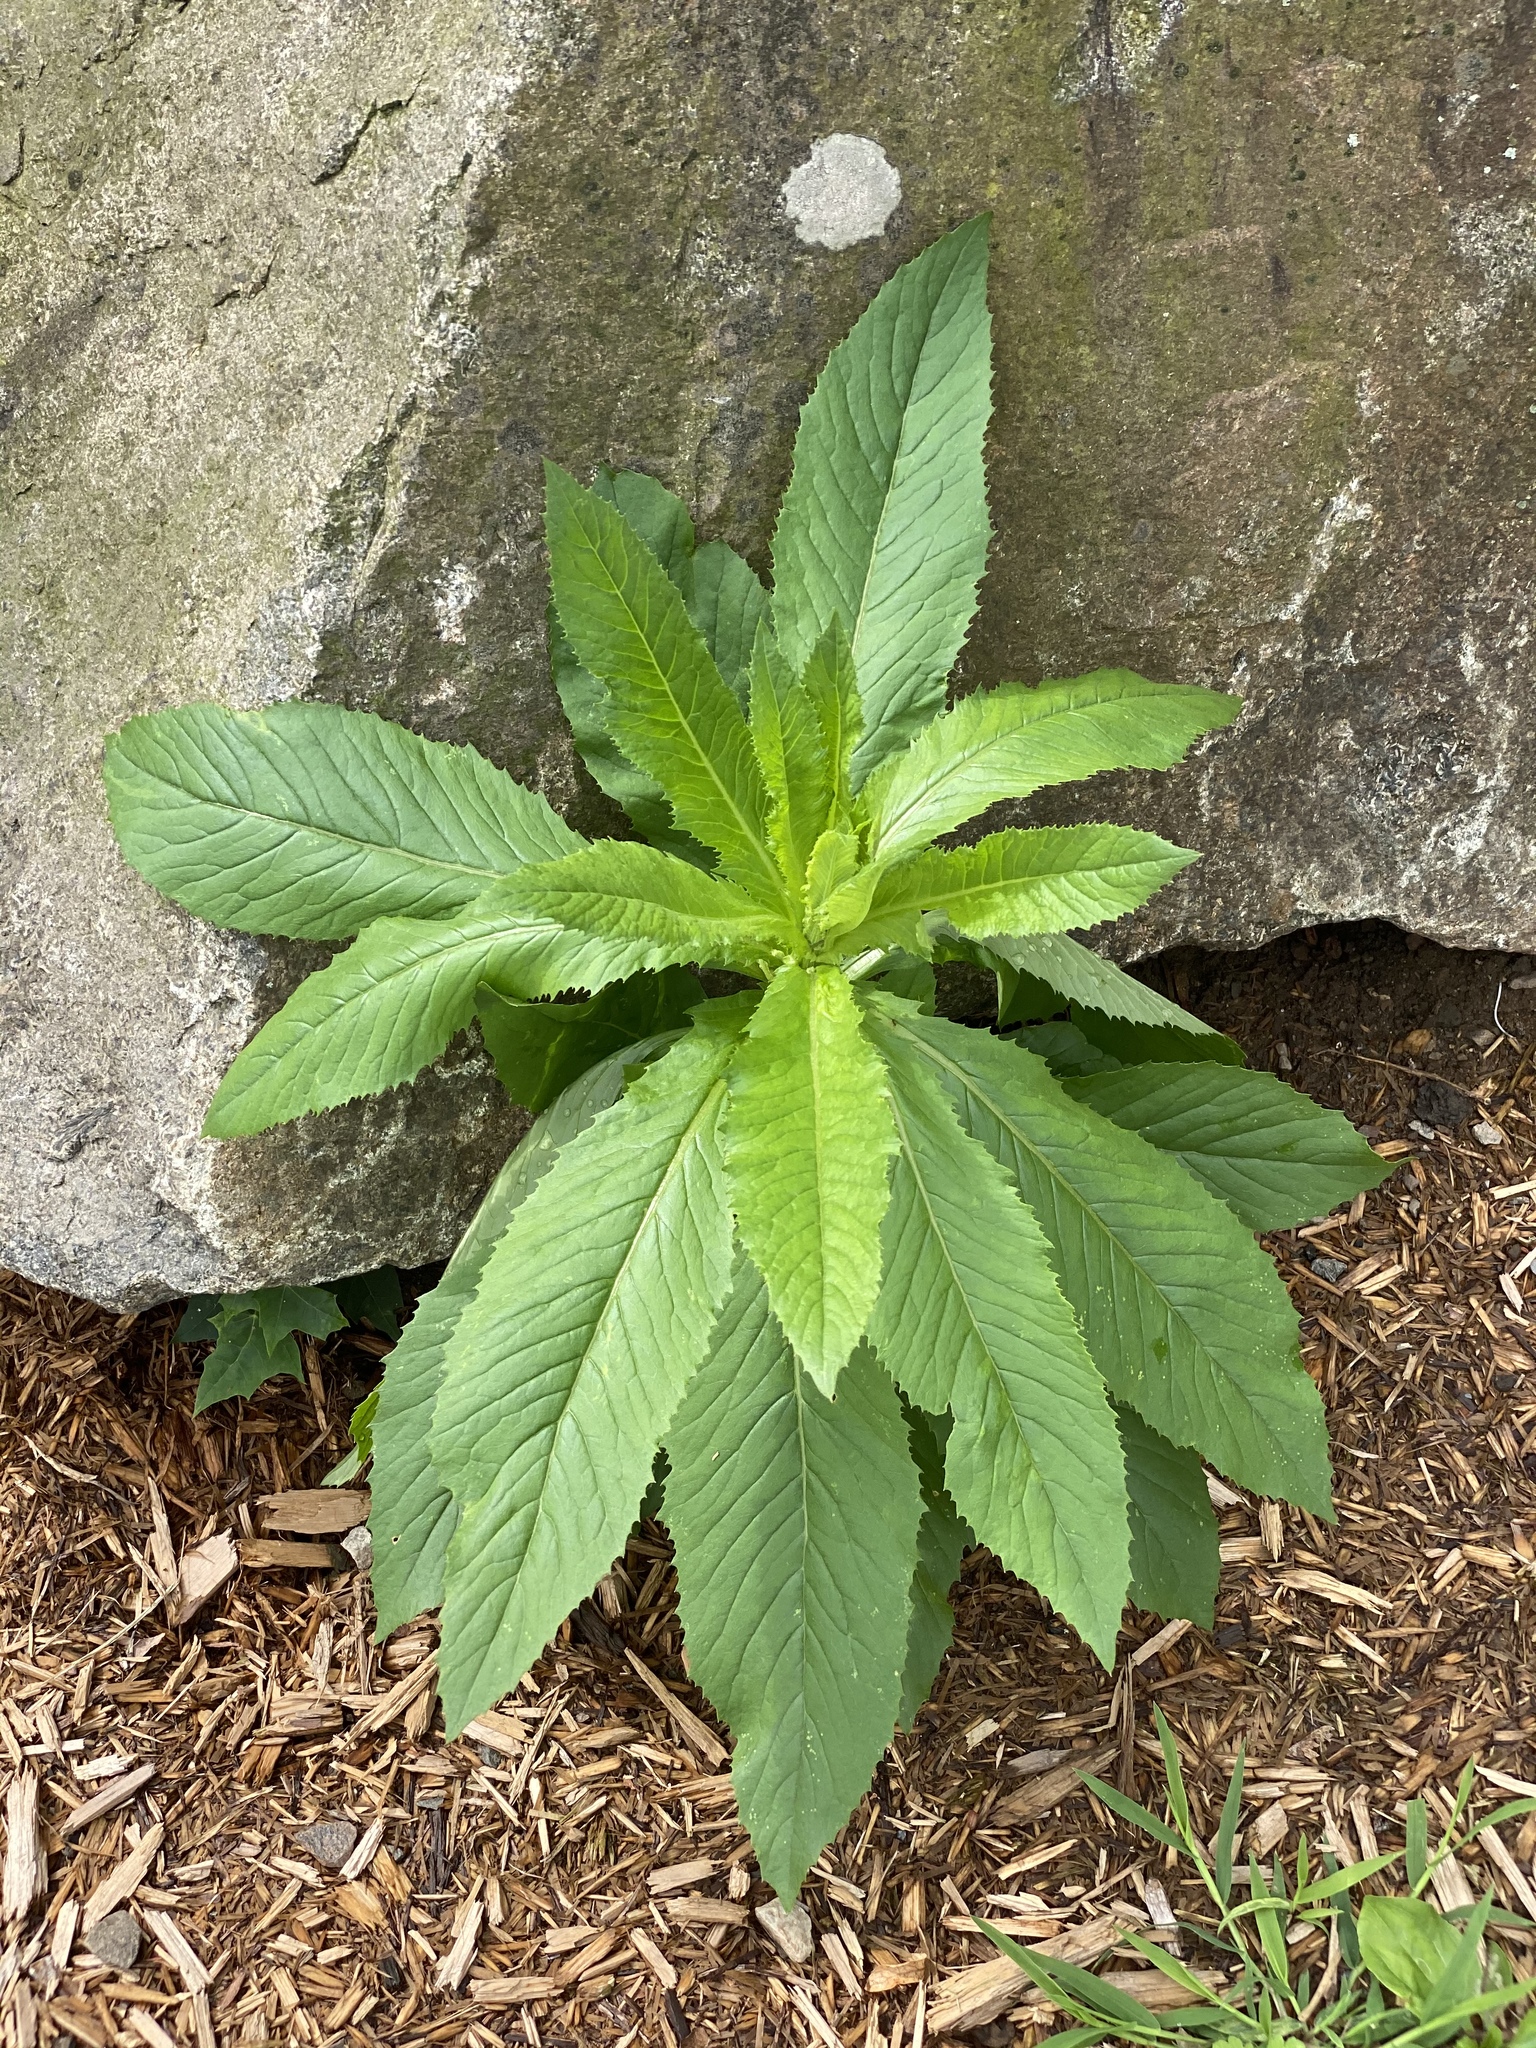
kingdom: Plantae
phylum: Tracheophyta
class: Magnoliopsida
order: Asterales
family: Asteraceae
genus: Erechtites
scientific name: Erechtites hieraciifolius
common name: American burnweed
